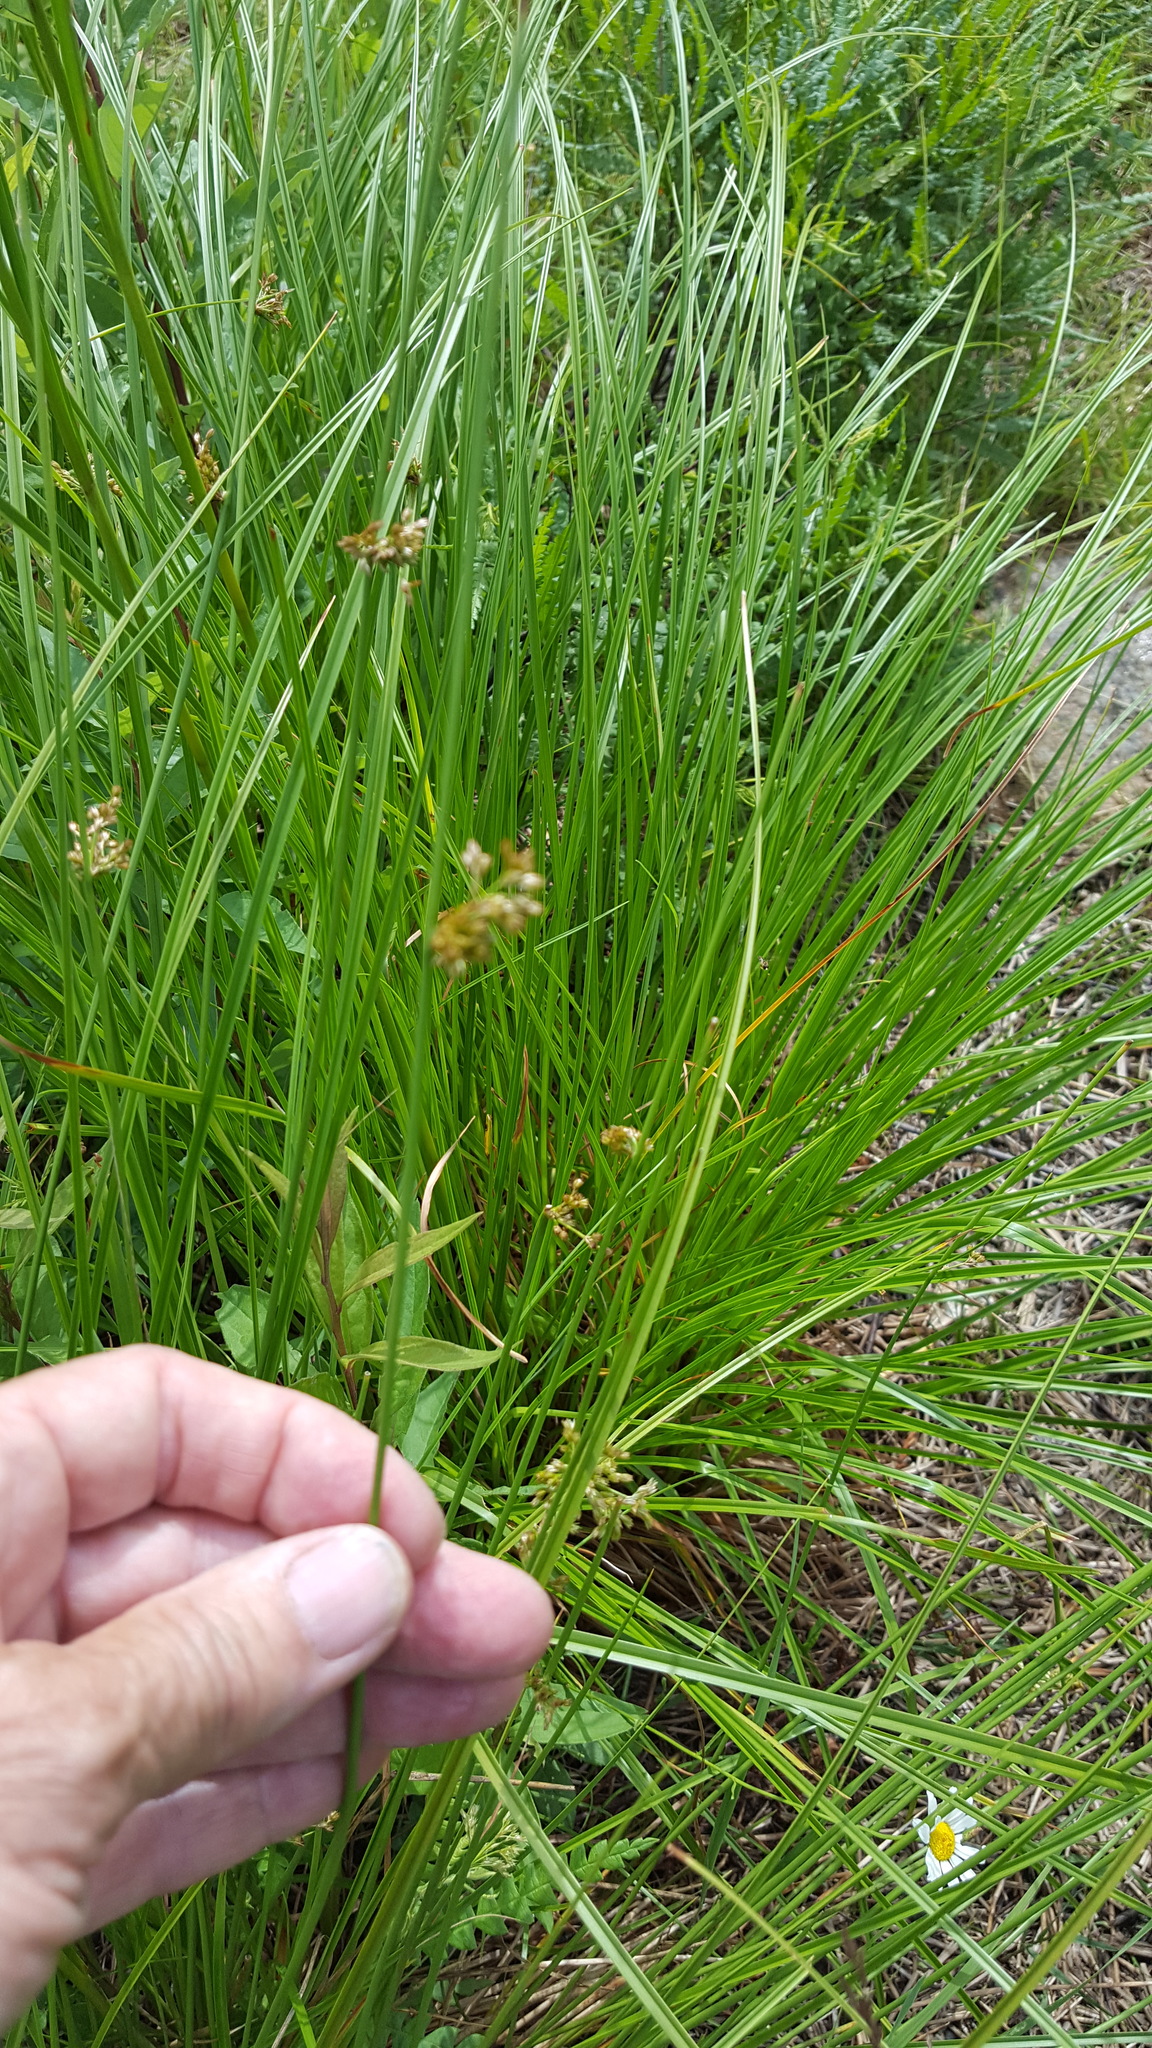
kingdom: Plantae
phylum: Tracheophyta
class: Liliopsida
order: Poales
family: Juncaceae
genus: Juncus
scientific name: Juncus effusus
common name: Soft rush
